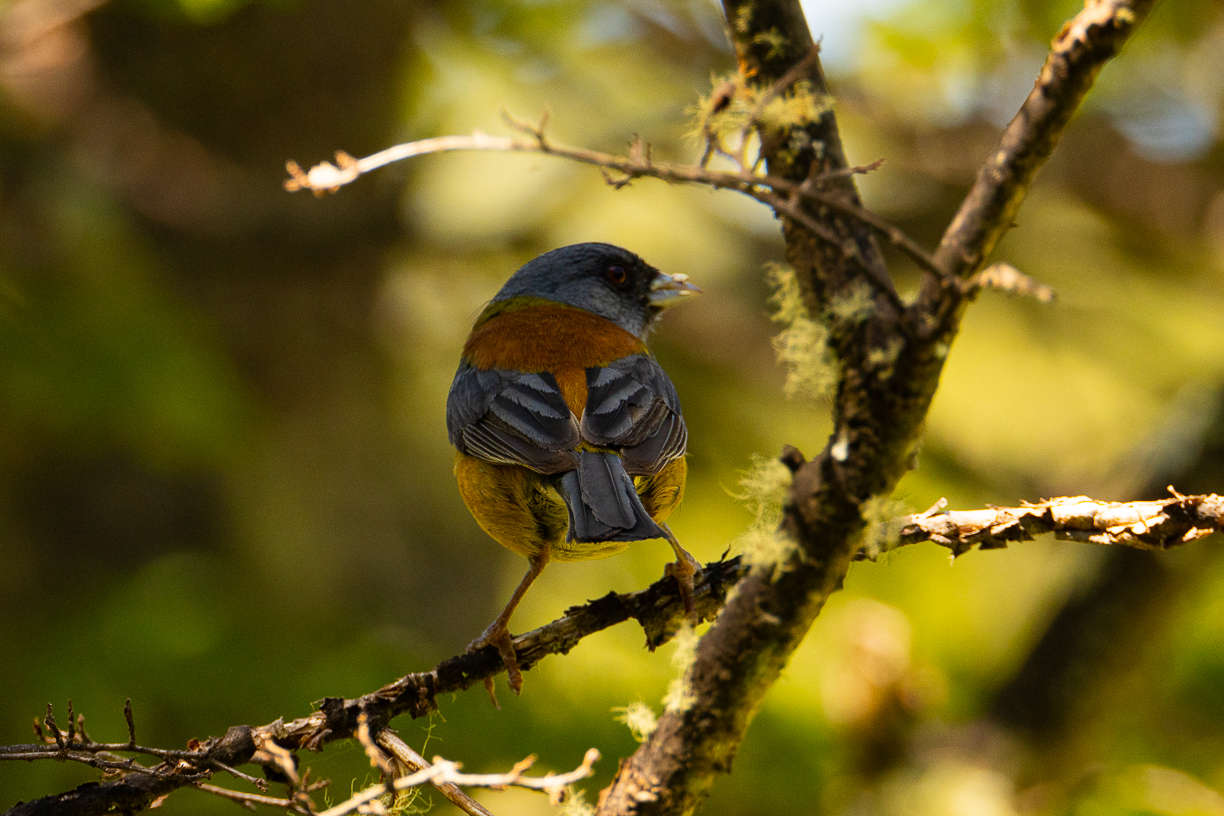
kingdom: Animalia
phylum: Chordata
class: Aves
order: Passeriformes
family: Thraupidae
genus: Phrygilus
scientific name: Phrygilus patagonicus
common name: Patagonian sierra finch
